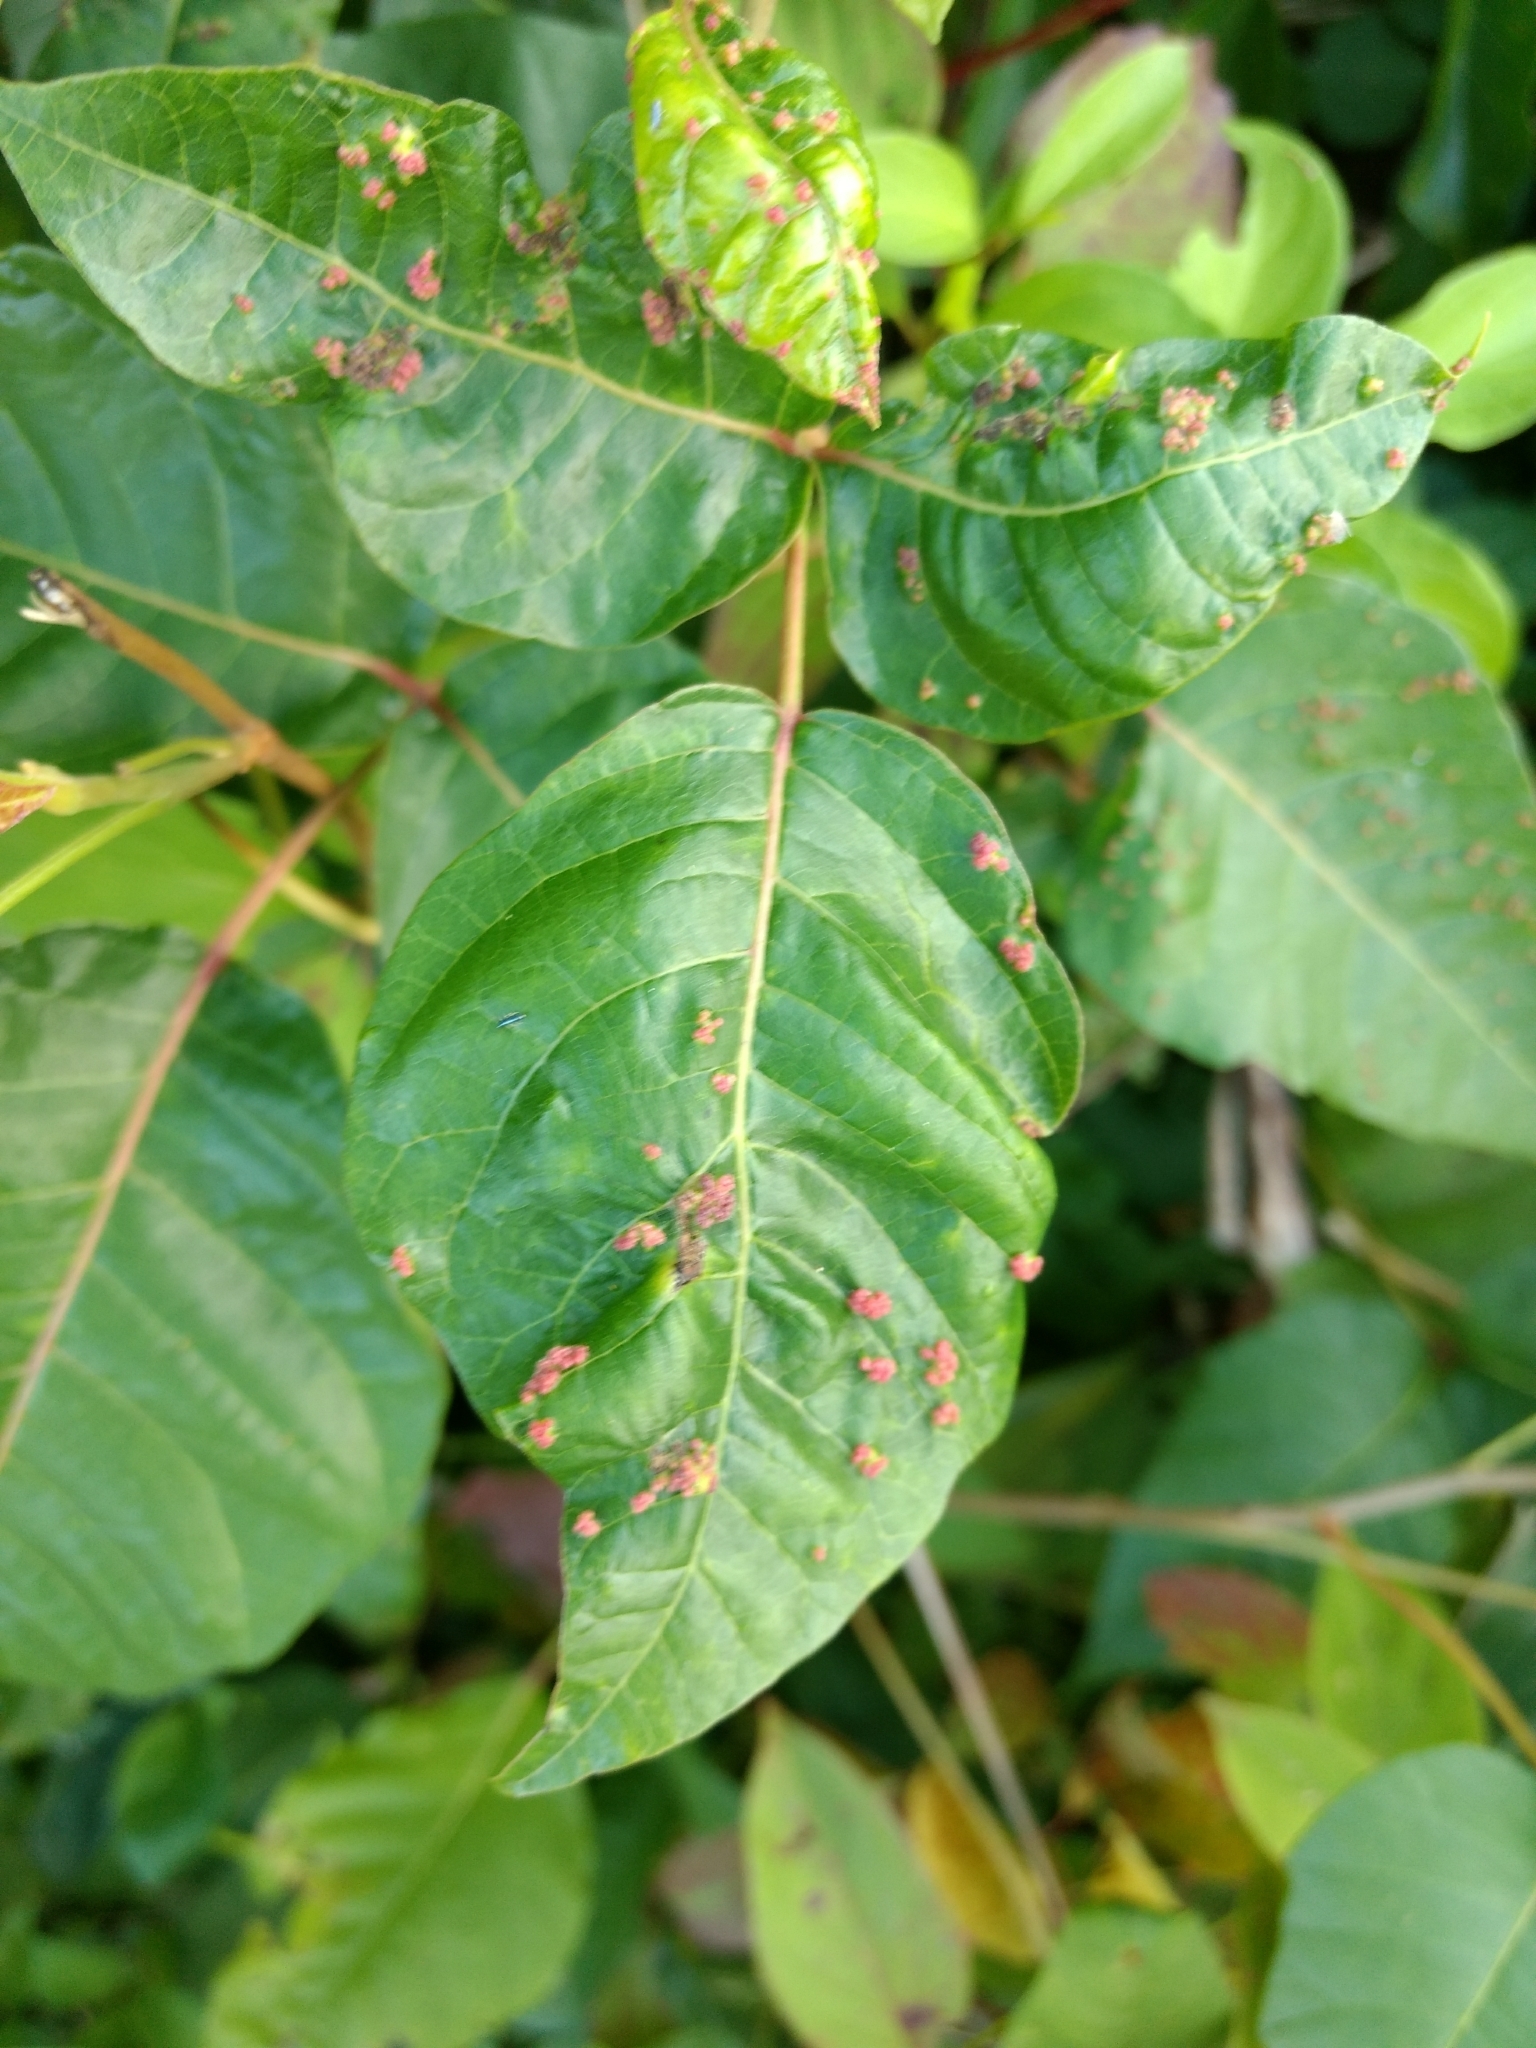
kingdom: Animalia
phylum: Arthropoda
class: Arachnida
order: Trombidiformes
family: Eriophyidae
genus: Aculops
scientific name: Aculops
